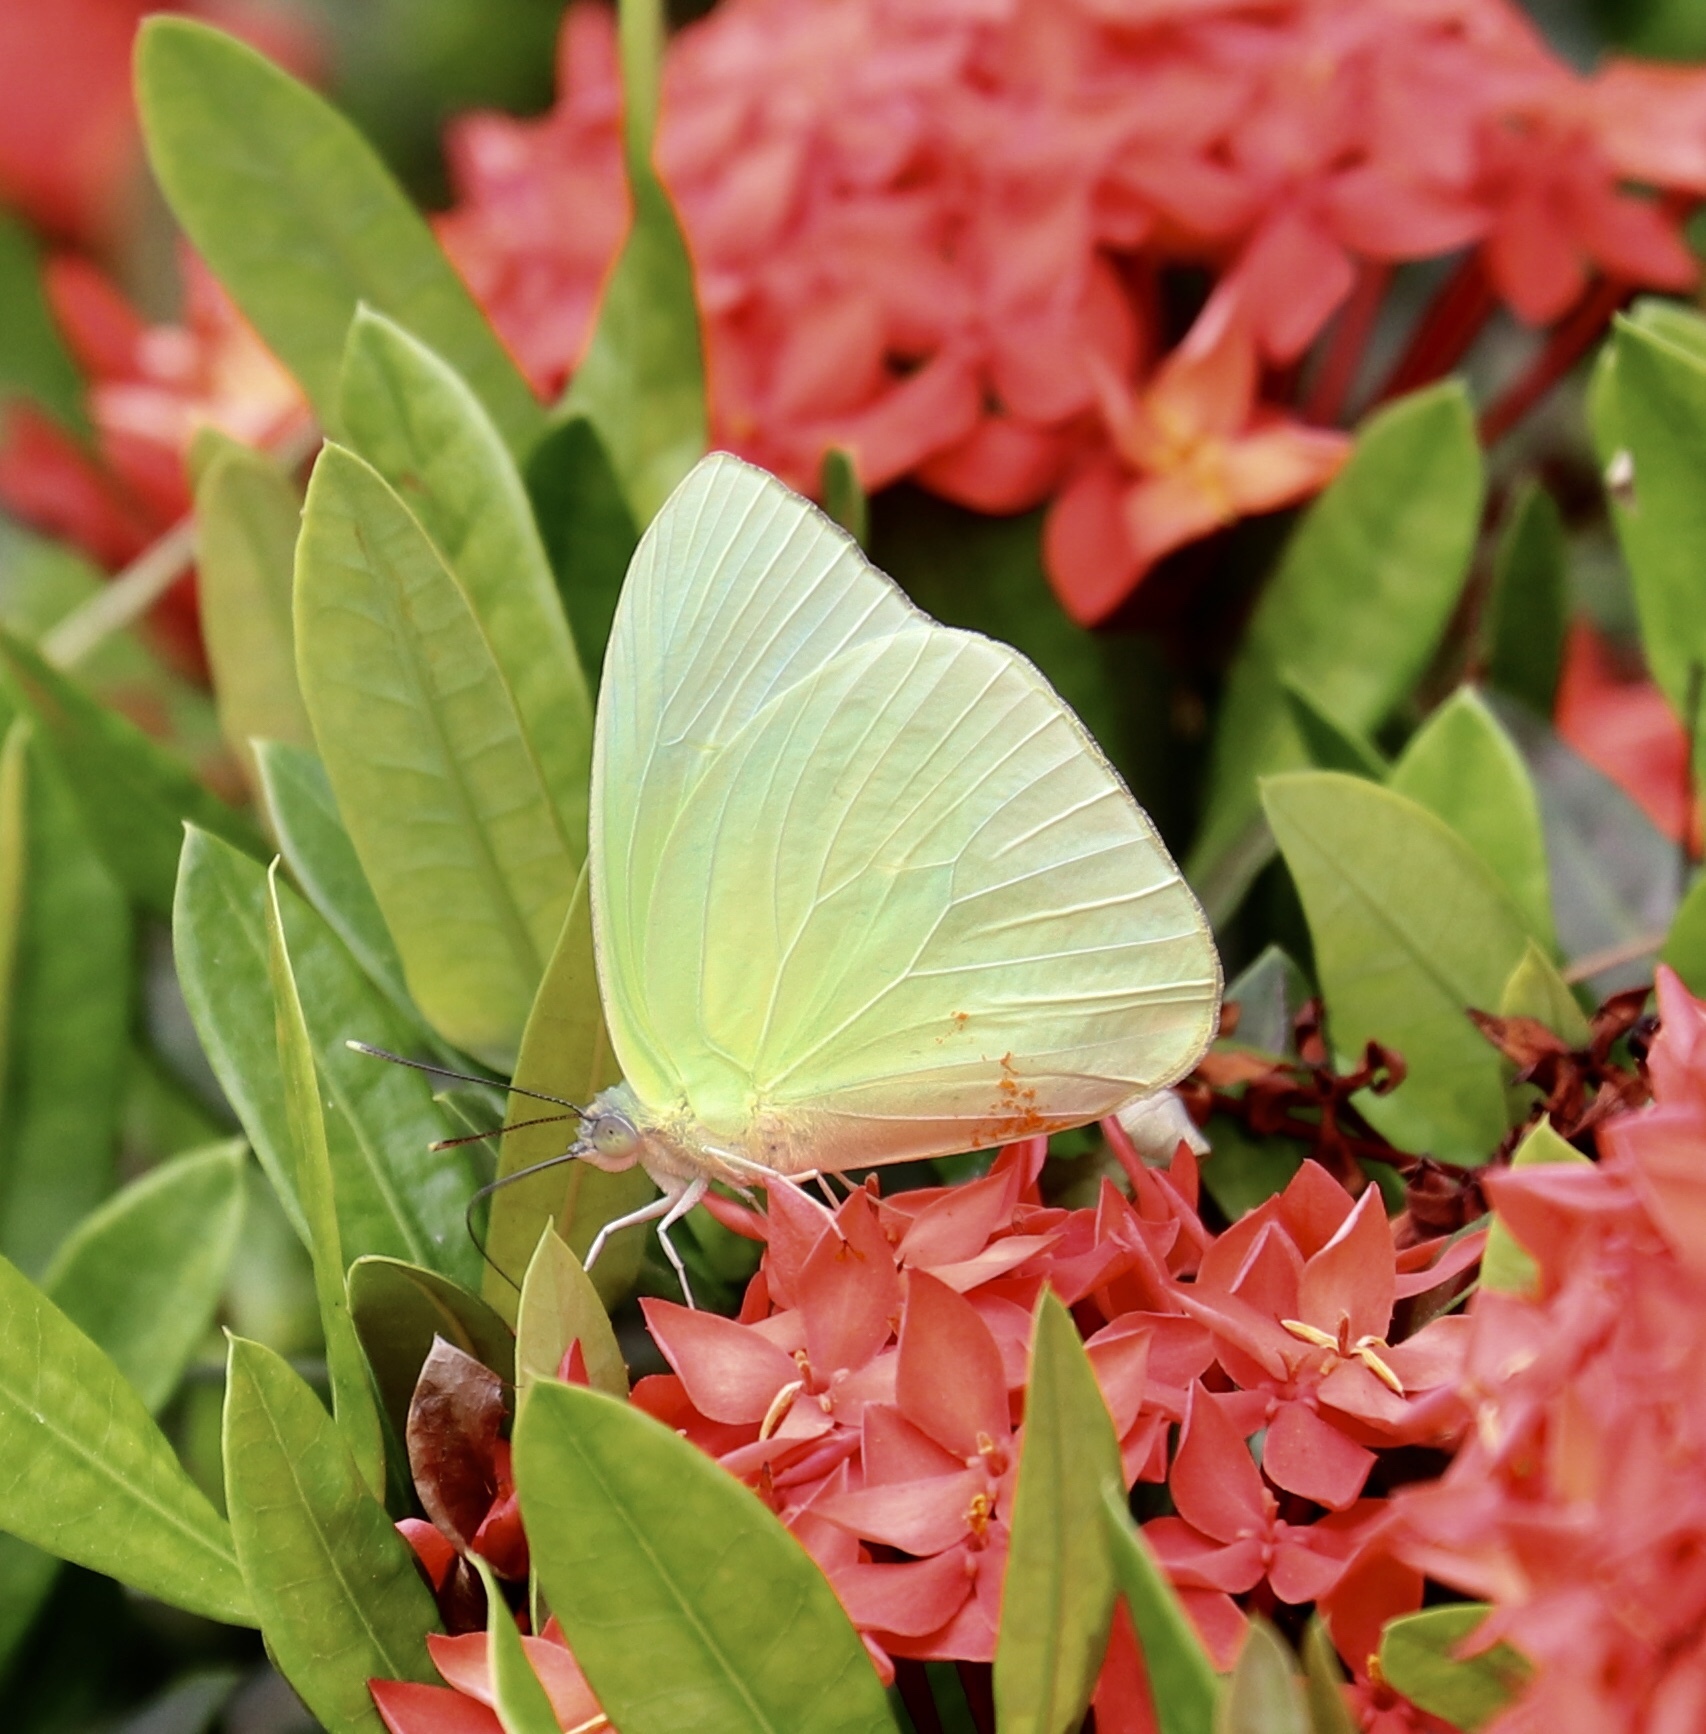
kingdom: Animalia
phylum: Arthropoda
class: Insecta
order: Lepidoptera
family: Pieridae
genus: Phoebis
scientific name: Phoebis sennae
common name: Cloudless sulphur
